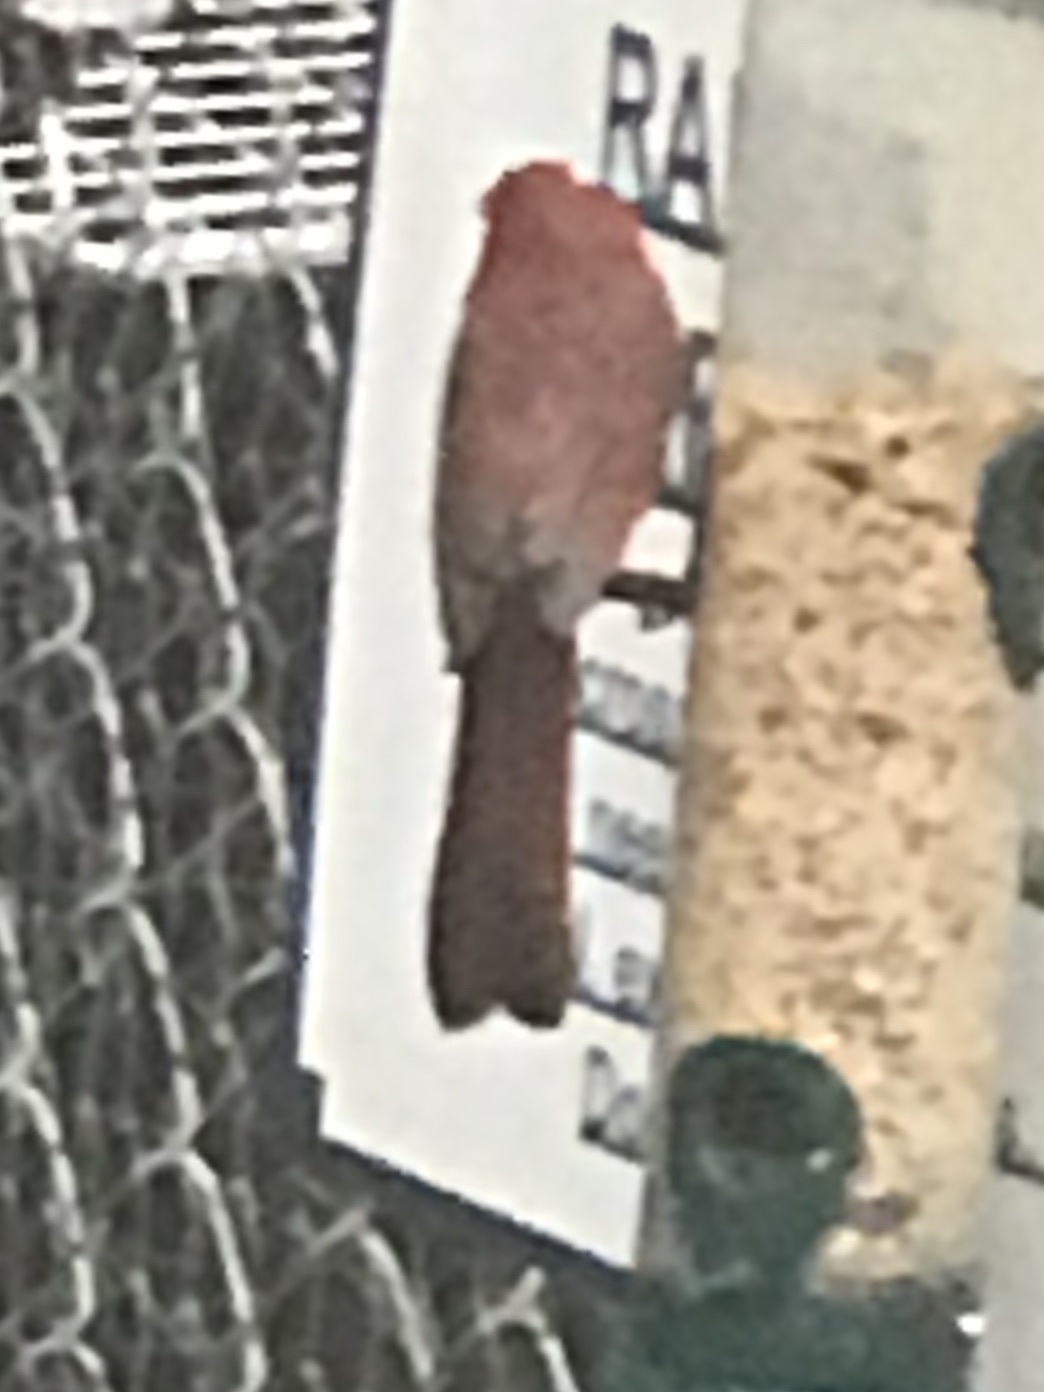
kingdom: Animalia
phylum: Chordata
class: Aves
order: Passeriformes
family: Cardinalidae
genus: Cardinalis
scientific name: Cardinalis cardinalis
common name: Northern cardinal
